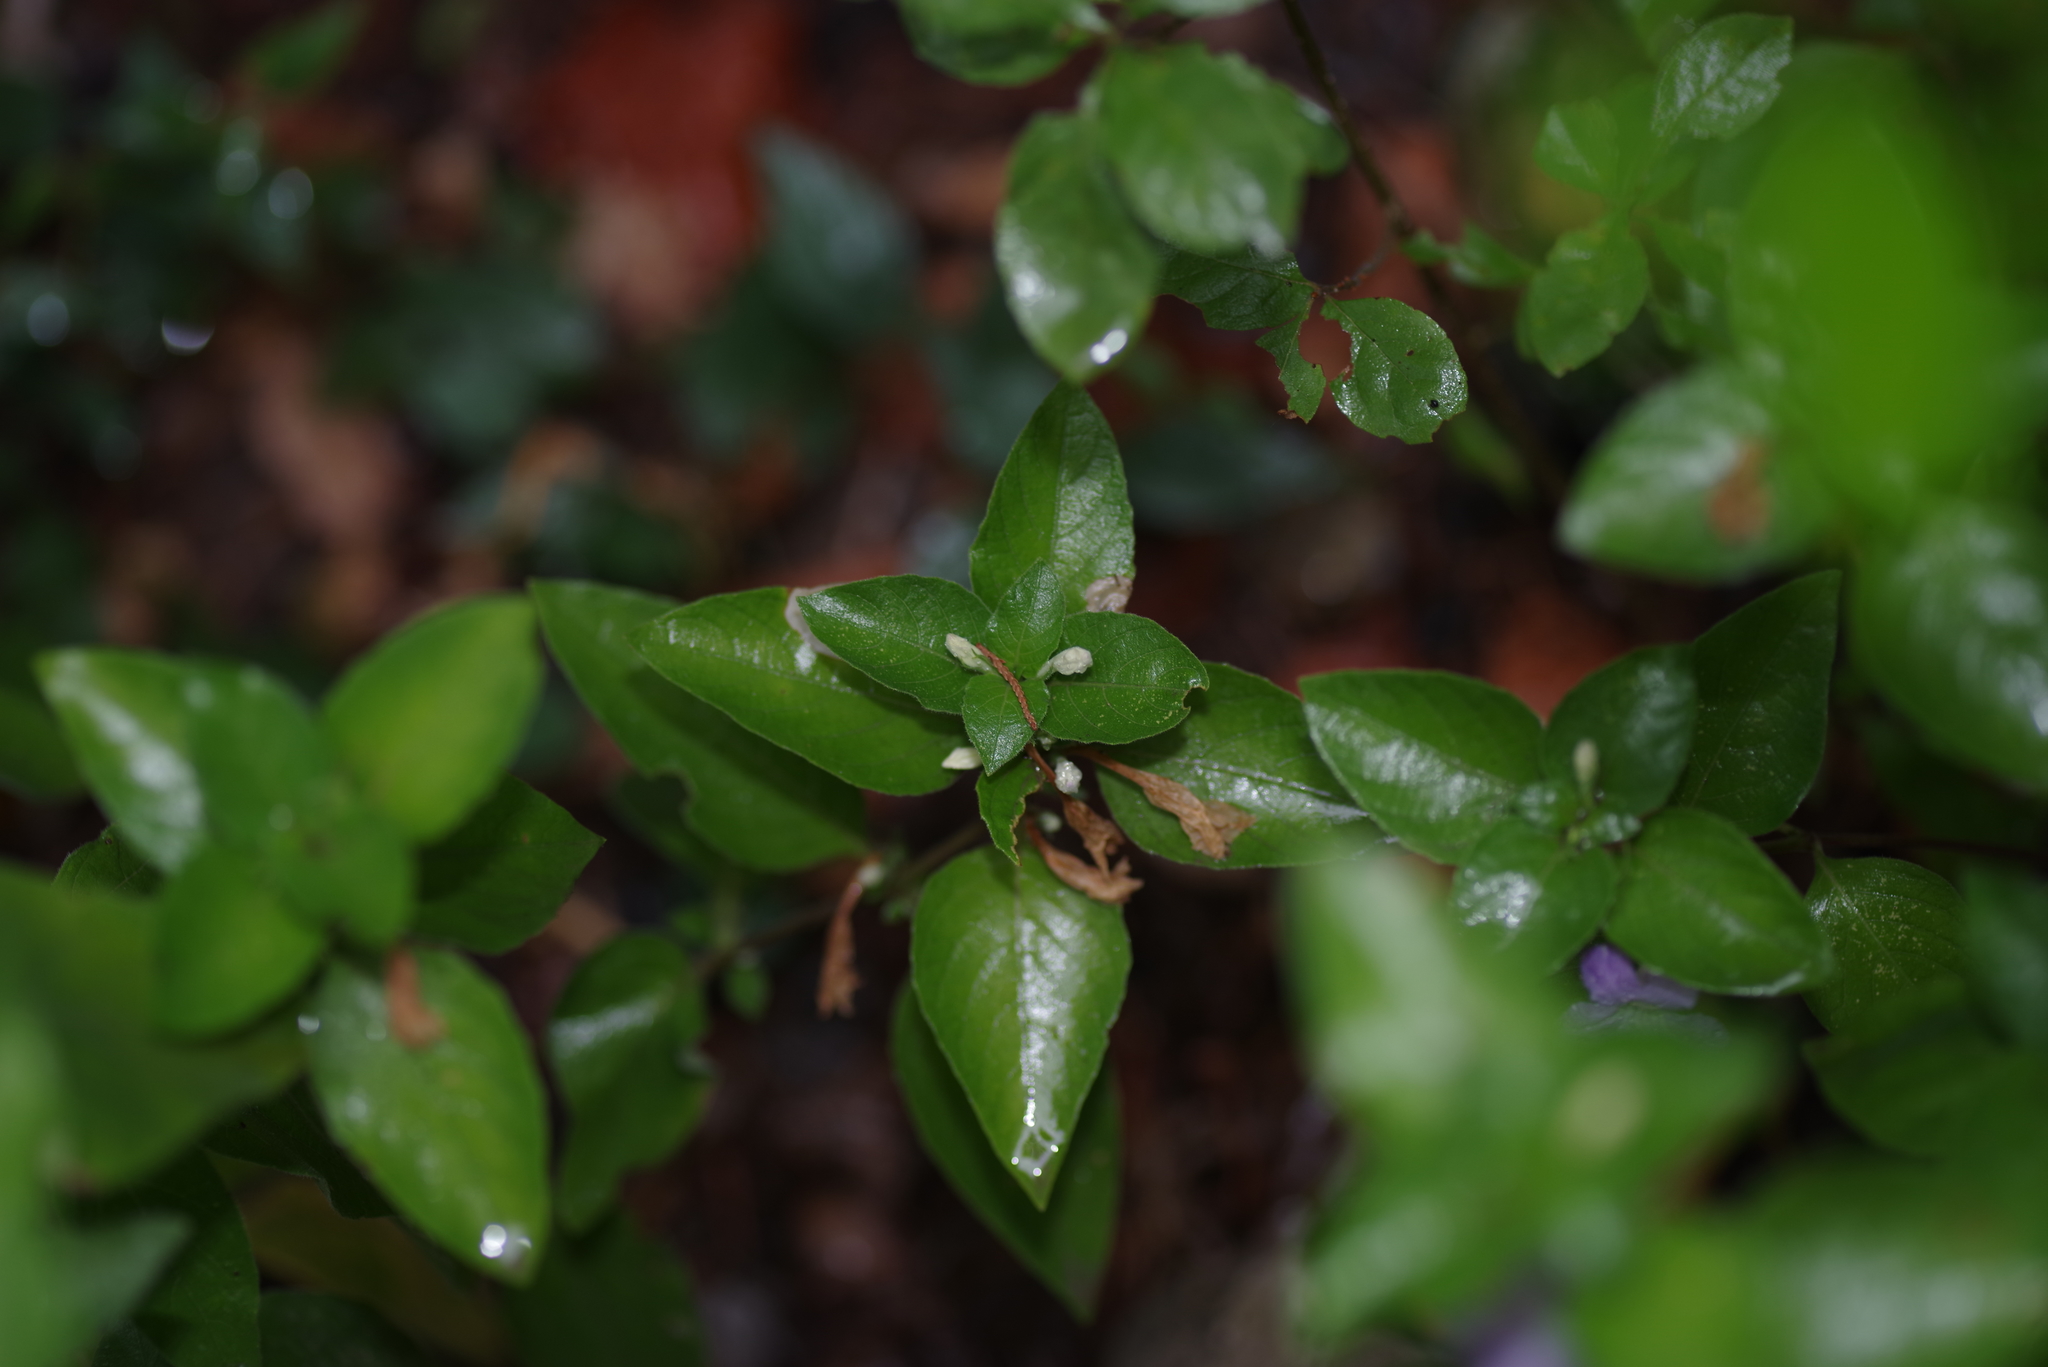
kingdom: Plantae
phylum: Tracheophyta
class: Magnoliopsida
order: Lamiales
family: Acanthaceae
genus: Ruellia
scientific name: Ruellia drummondiana
